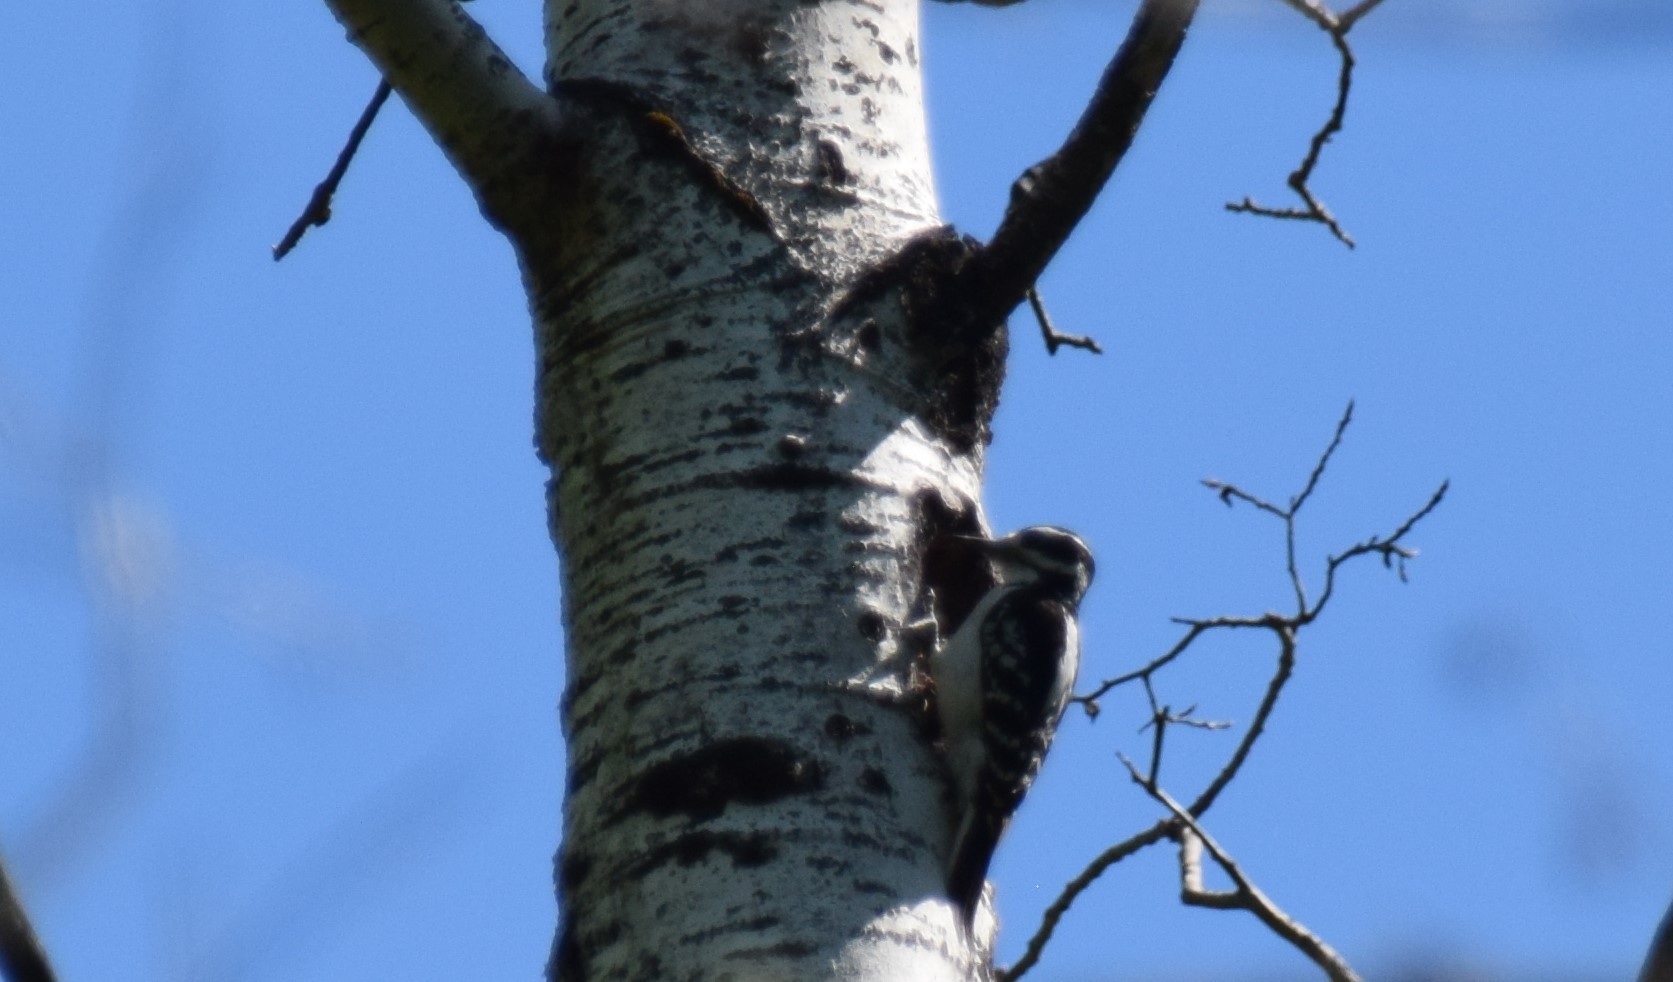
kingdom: Animalia
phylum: Chordata
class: Aves
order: Piciformes
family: Picidae
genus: Dryobates
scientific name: Dryobates pubescens
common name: Downy woodpecker
